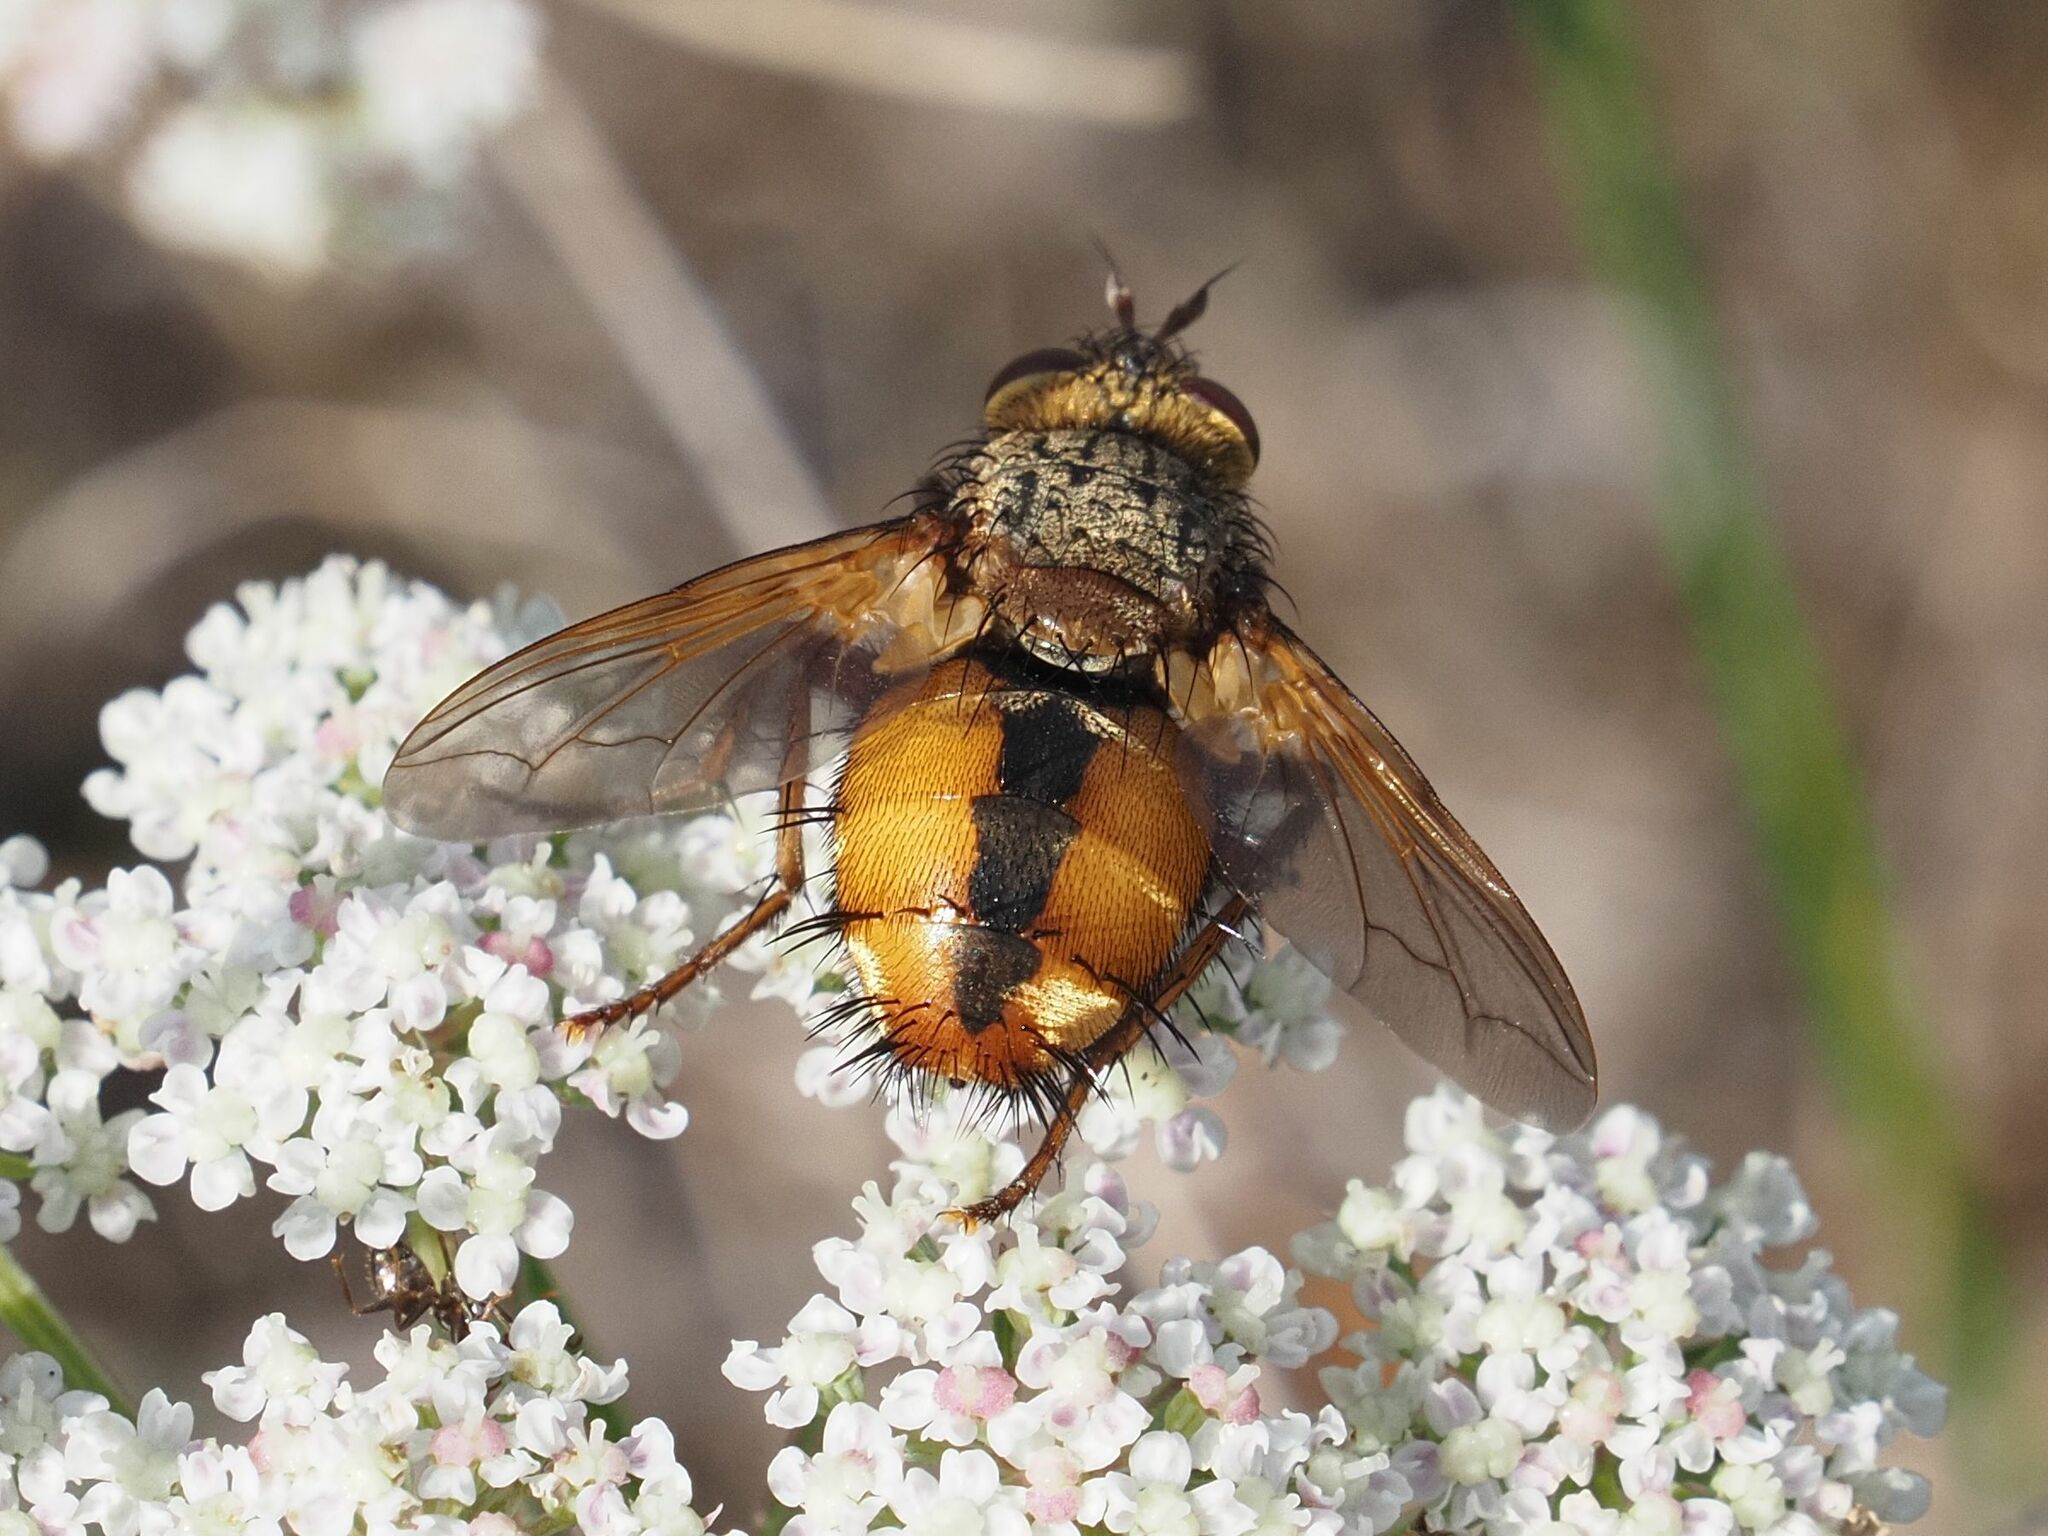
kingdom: Animalia
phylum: Arthropoda
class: Insecta
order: Diptera
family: Tachinidae
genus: Tachina
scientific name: Tachina fera
